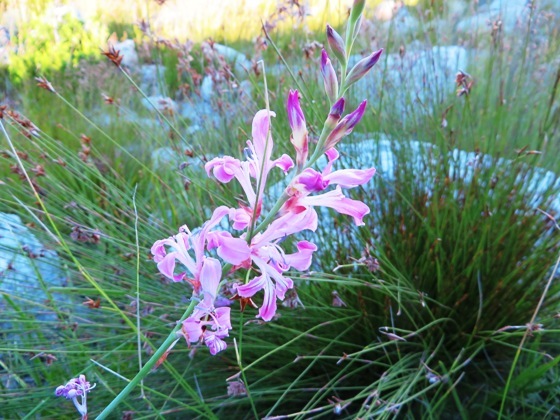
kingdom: Plantae
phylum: Tracheophyta
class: Liliopsida
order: Asparagales
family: Iridaceae
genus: Tritoniopsis
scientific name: Tritoniopsis ramosa
